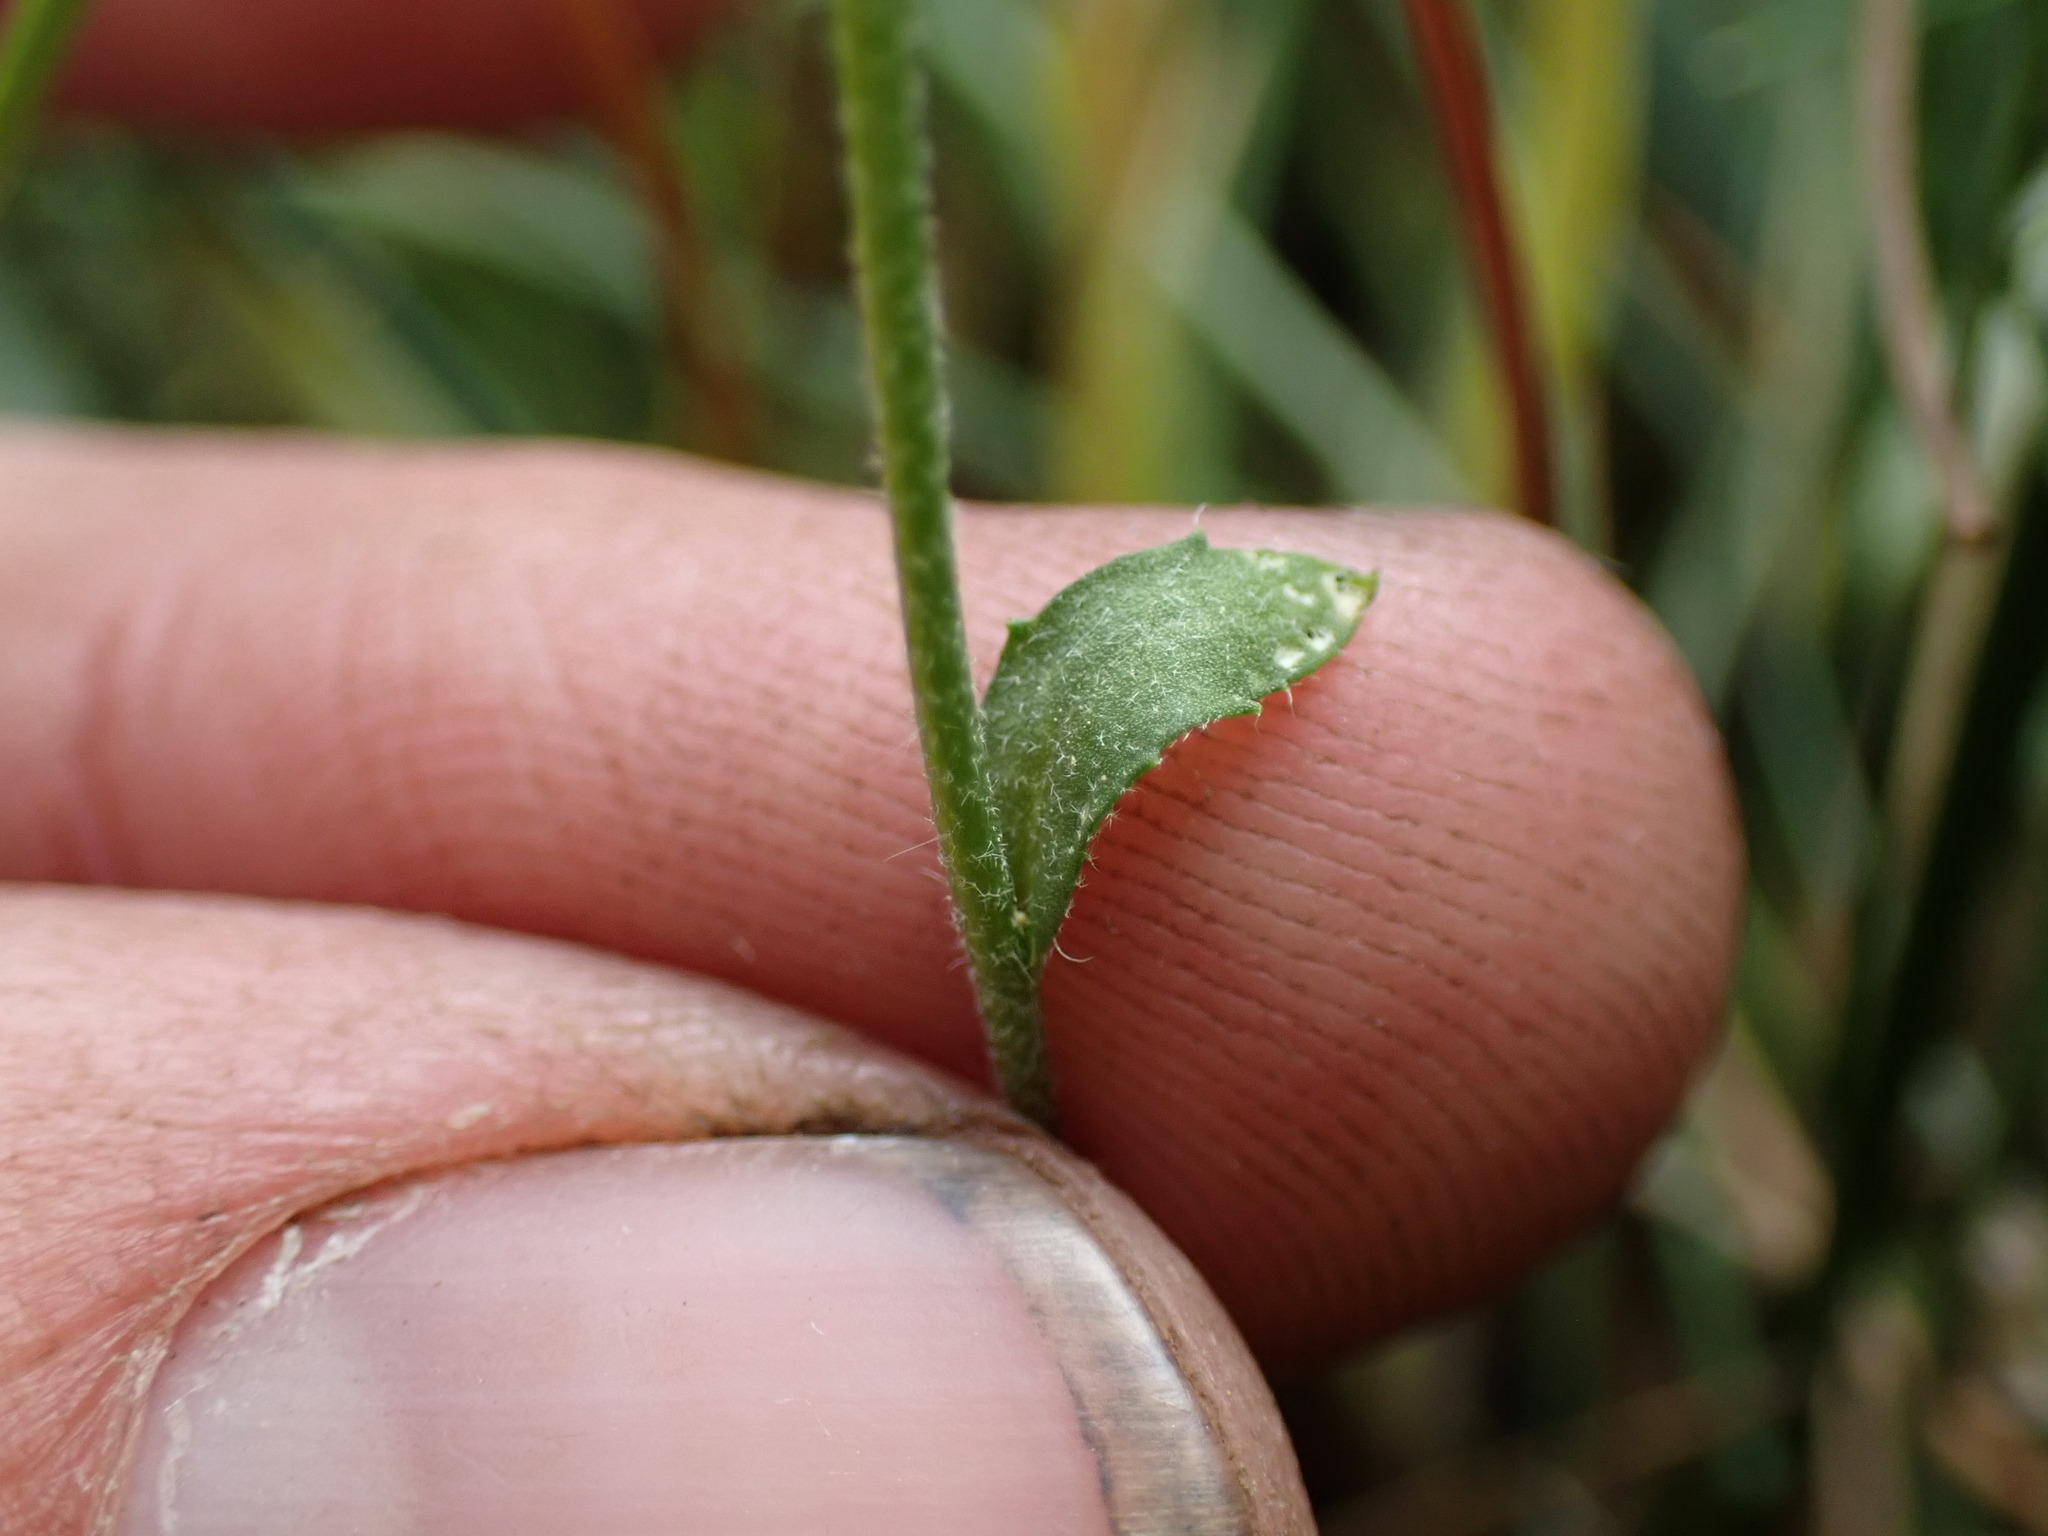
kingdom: Plantae
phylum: Tracheophyta
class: Magnoliopsida
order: Brassicales
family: Brassicaceae
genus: Draba
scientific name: Draba praealta
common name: Tall draba
